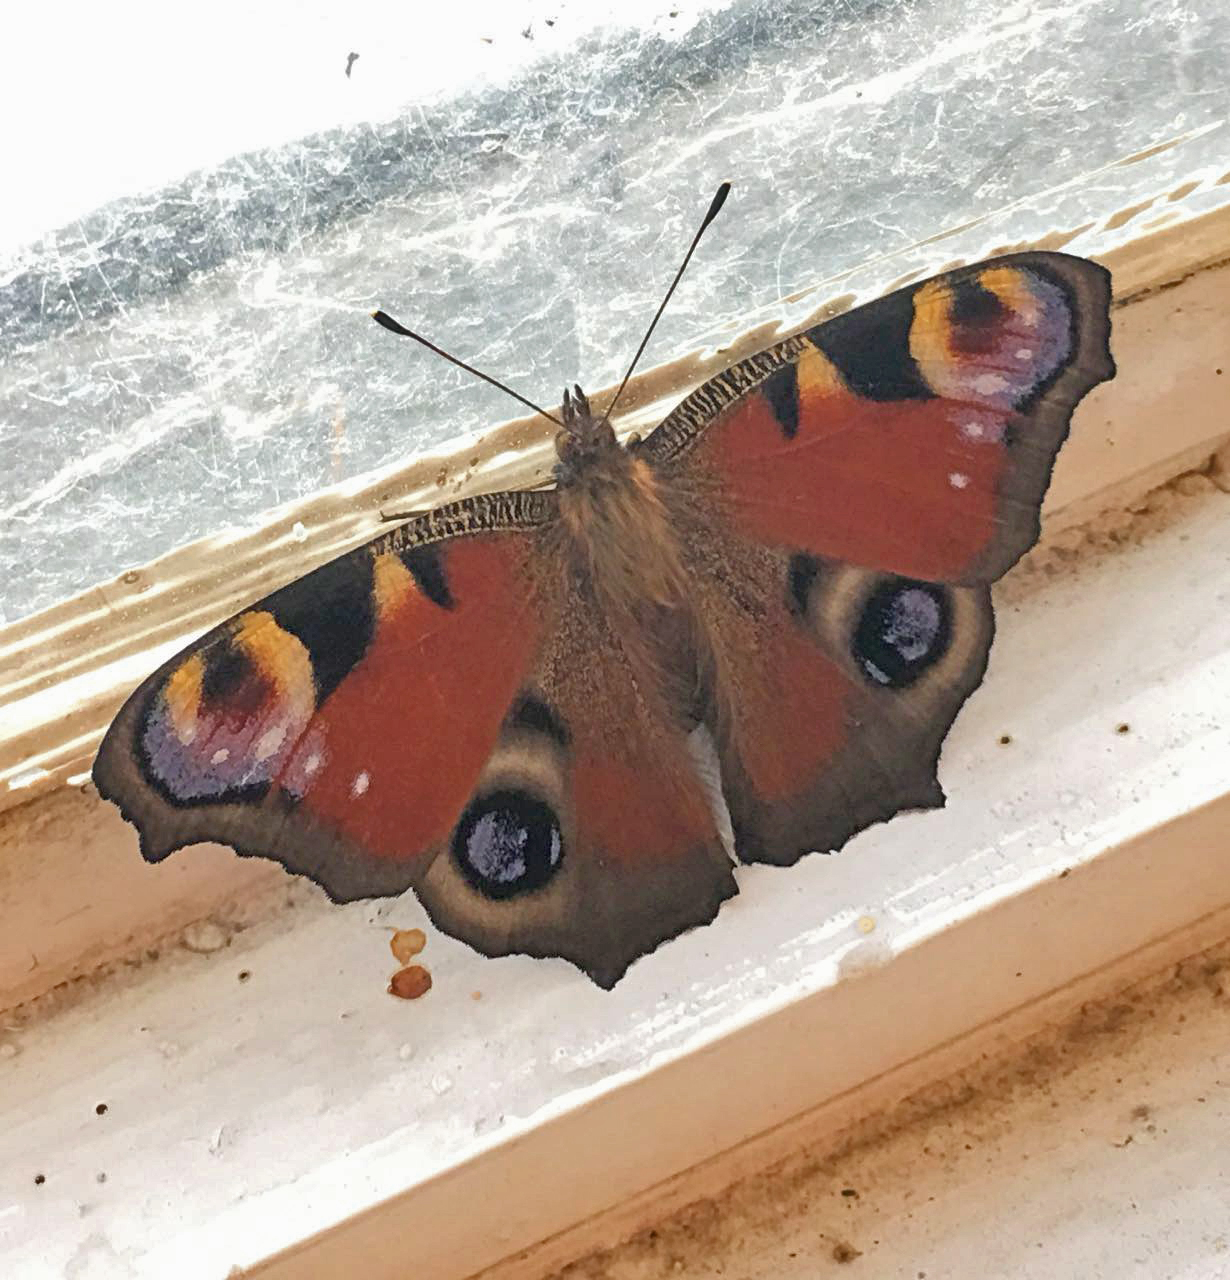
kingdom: Animalia
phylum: Arthropoda
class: Insecta
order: Lepidoptera
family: Nymphalidae
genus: Aglais
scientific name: Aglais io
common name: Peacock
